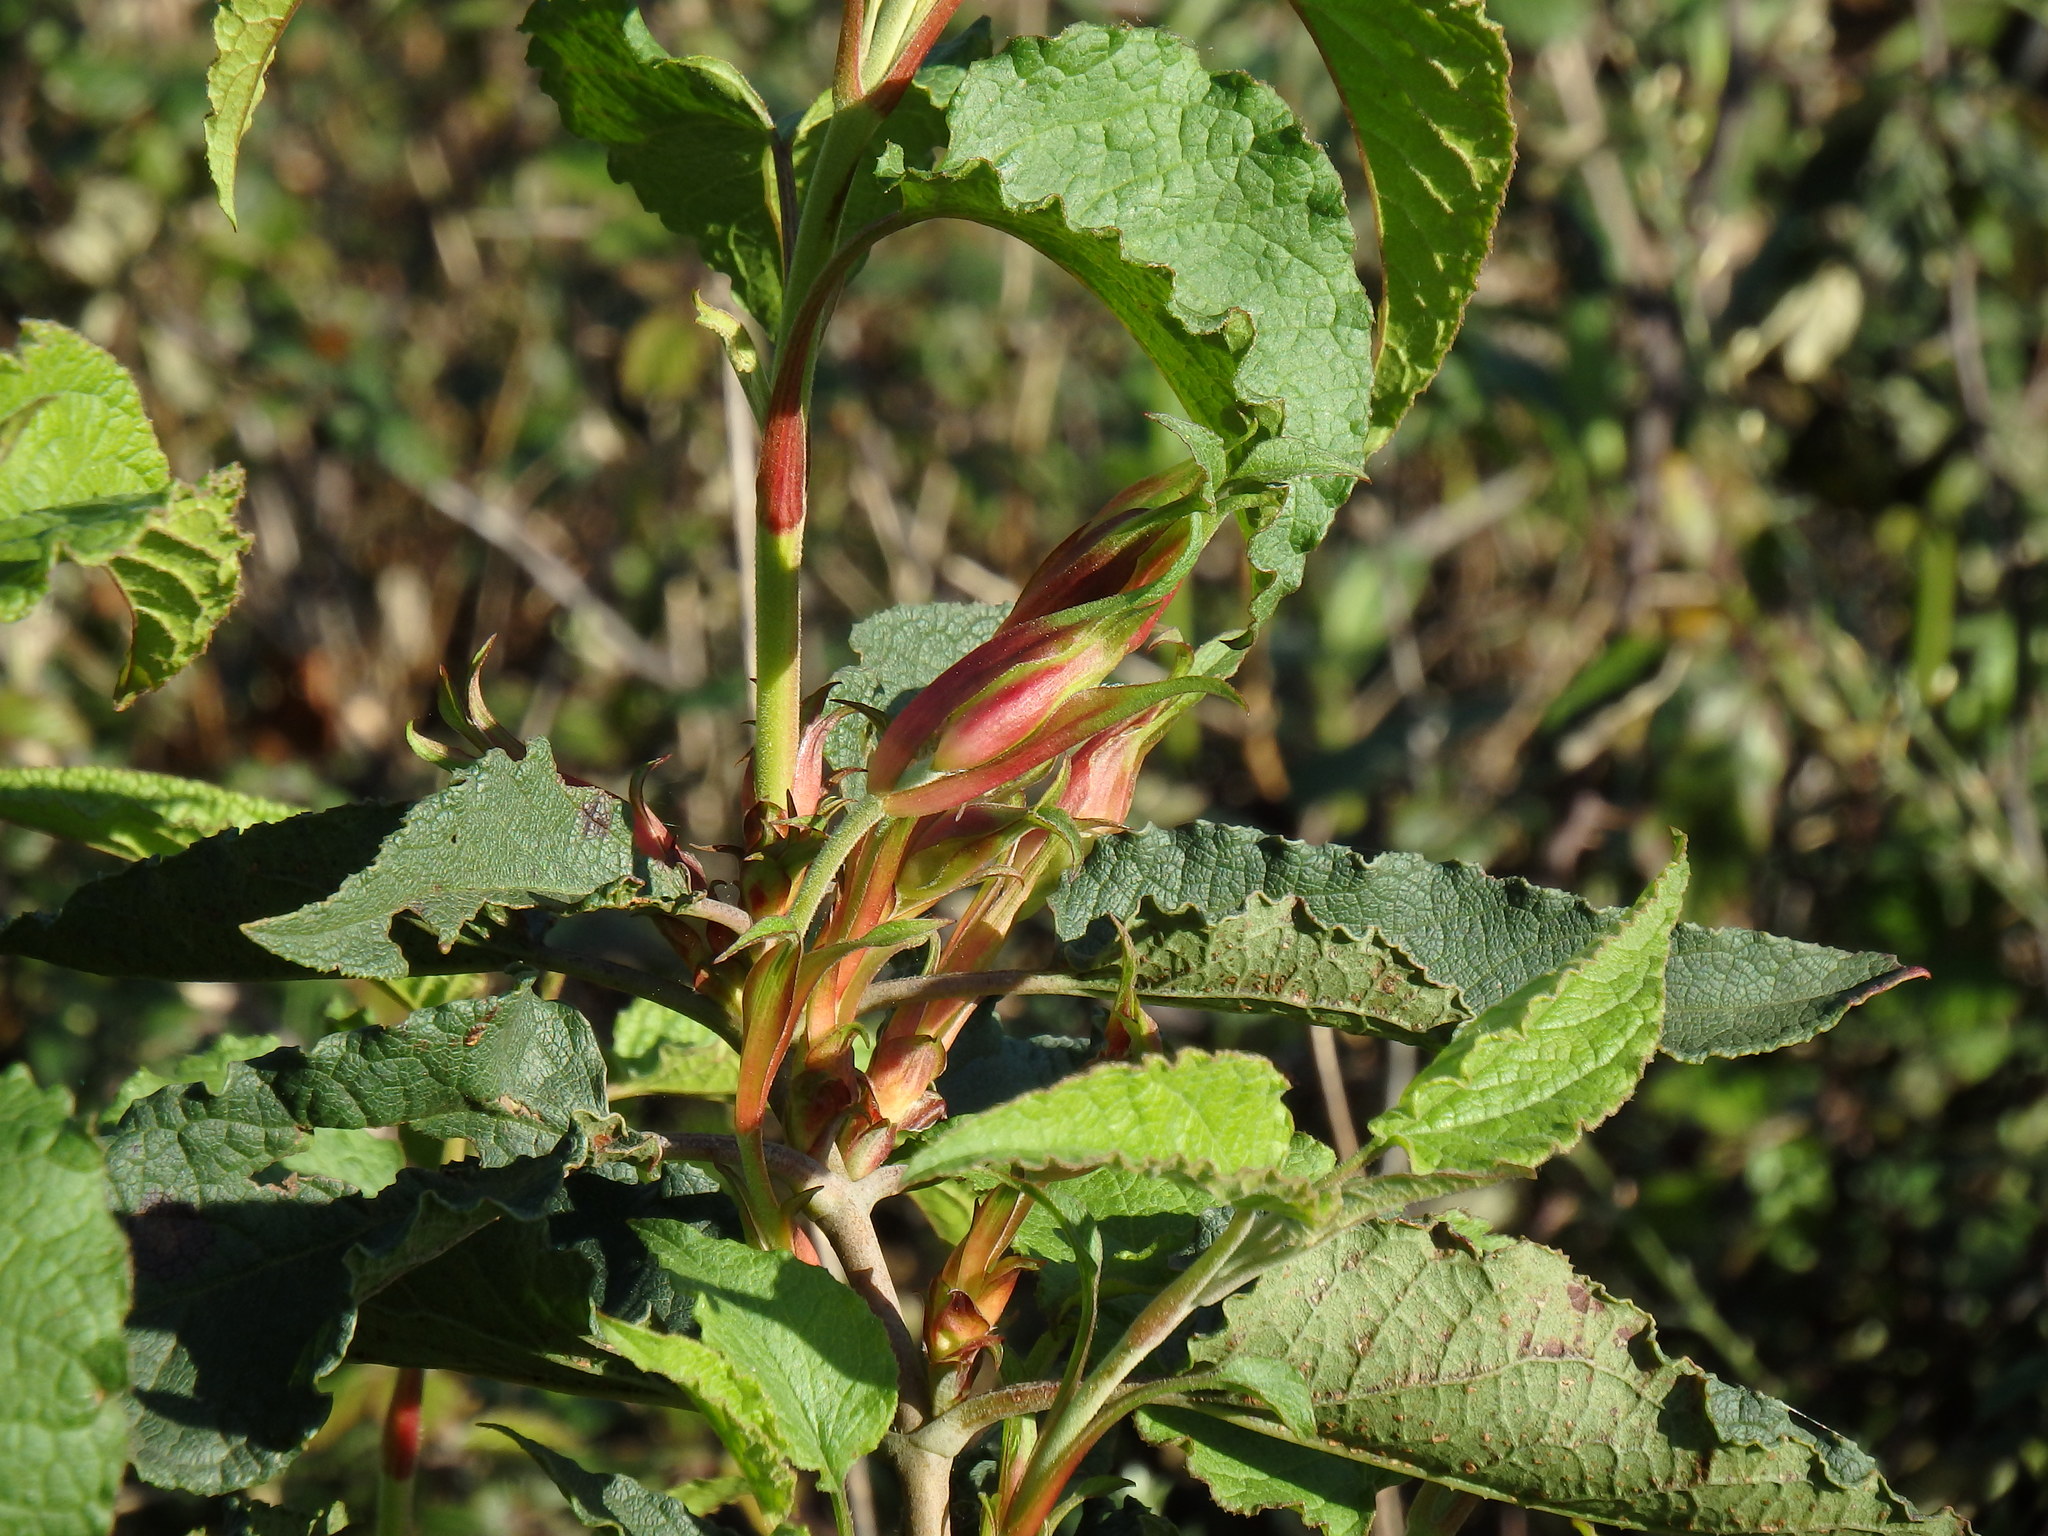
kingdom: Plantae
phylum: Tracheophyta
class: Magnoliopsida
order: Malvales
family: Cistaceae
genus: Cistus
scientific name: Cistus populifolius
